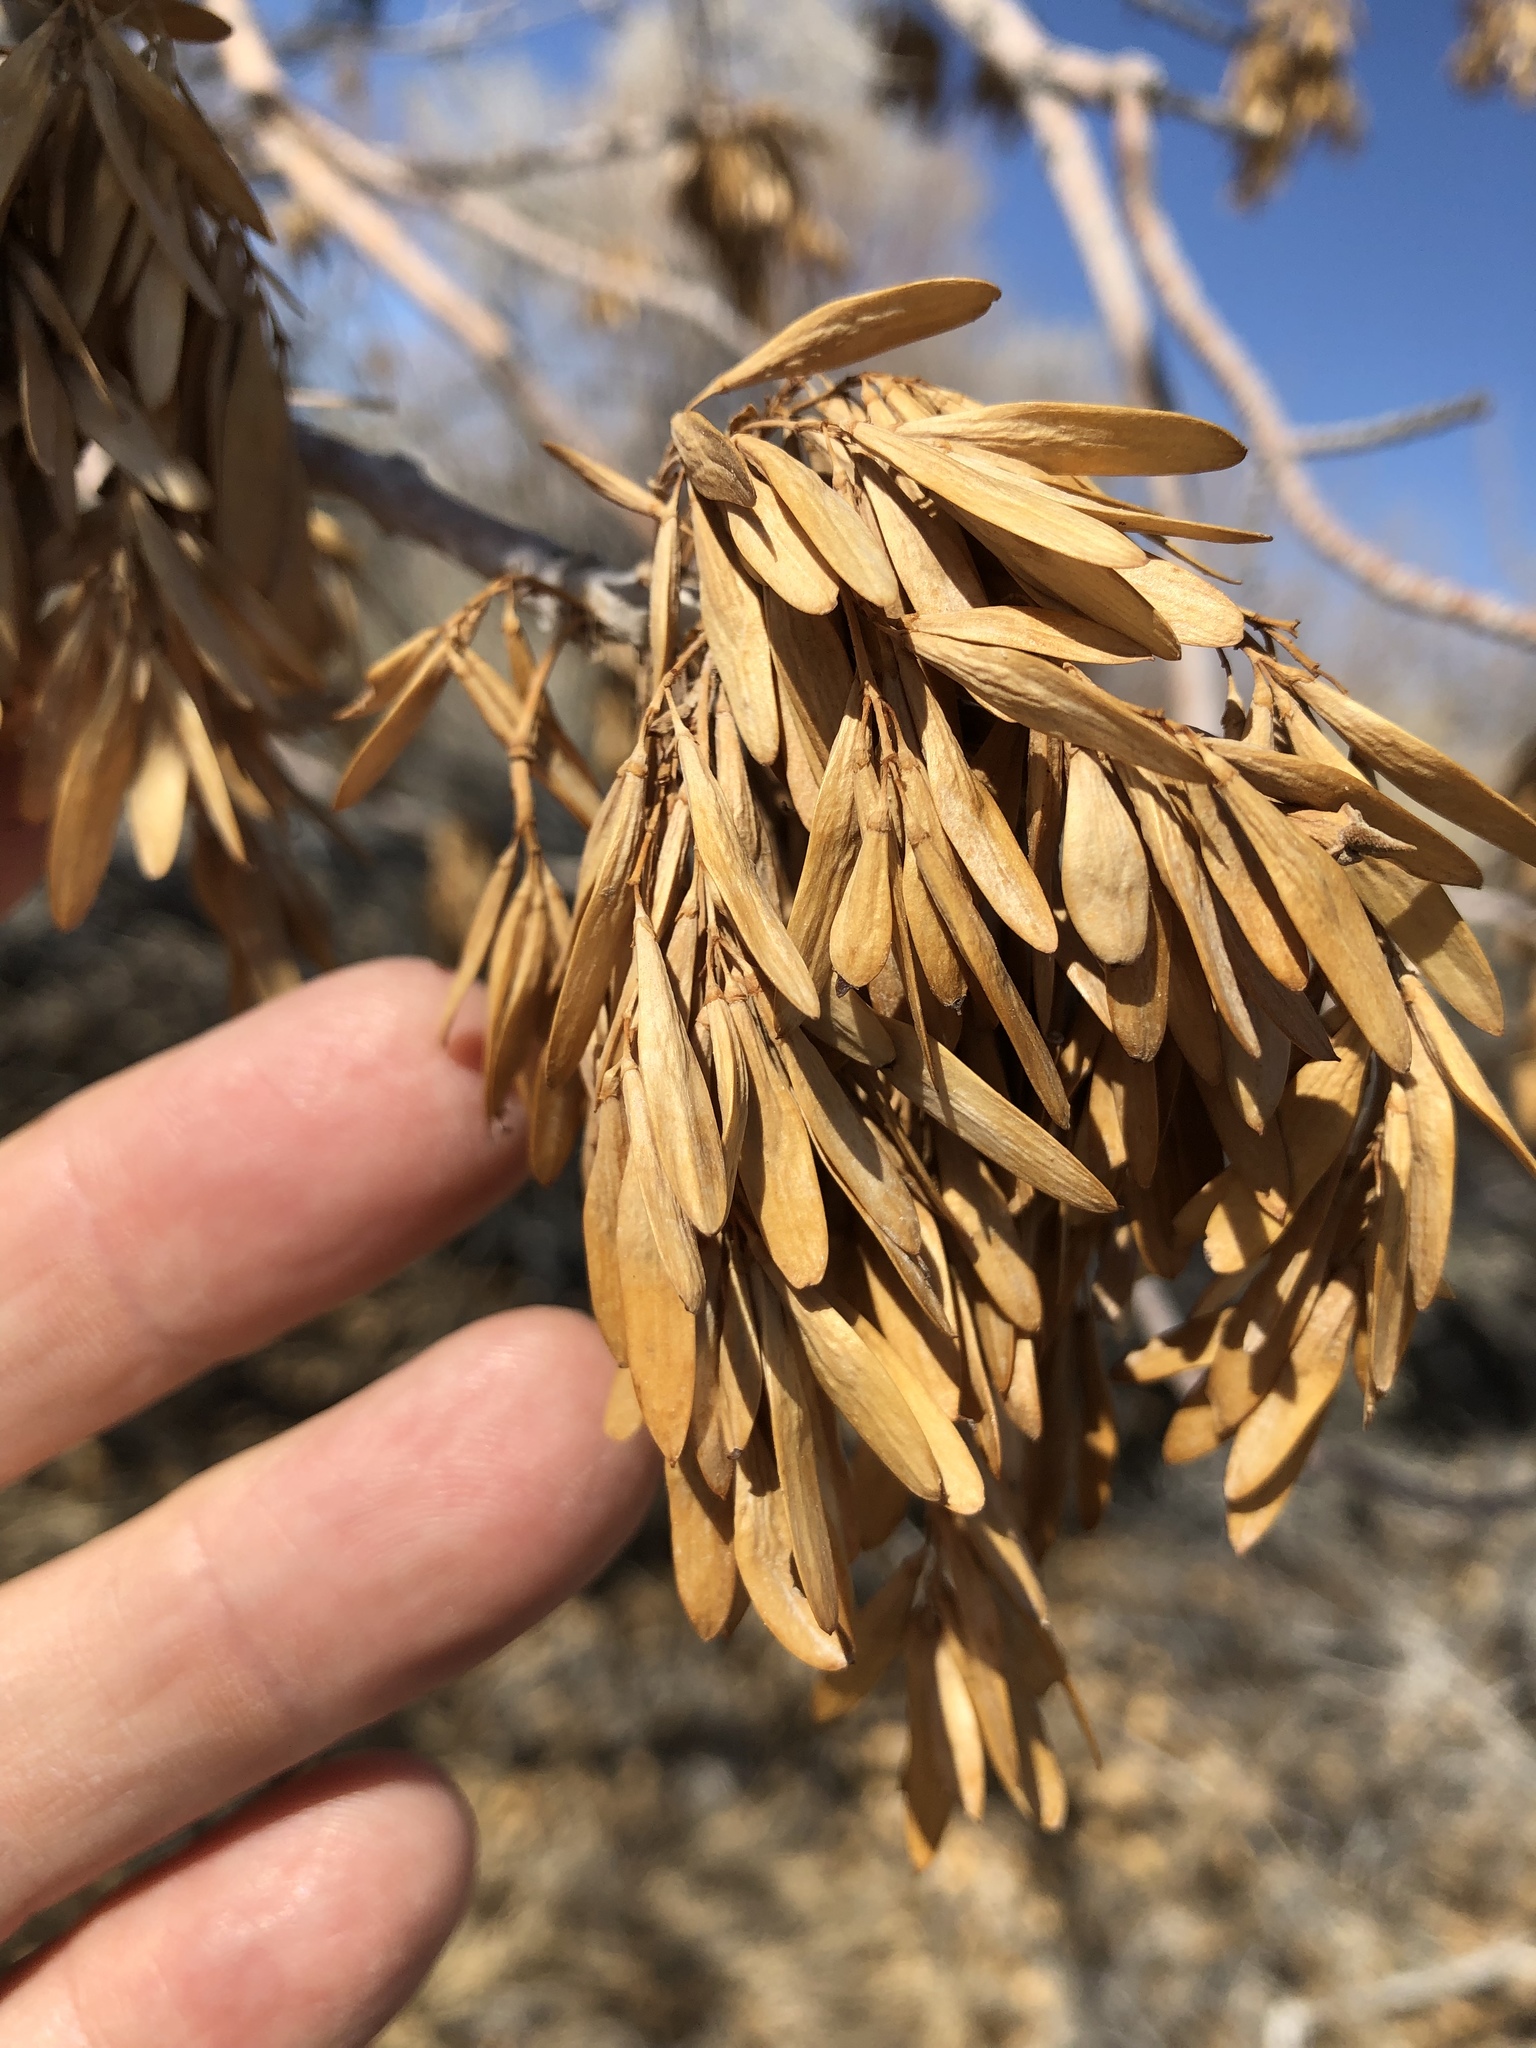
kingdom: Plantae
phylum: Tracheophyta
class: Magnoliopsida
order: Lamiales
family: Oleaceae
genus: Fraxinus
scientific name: Fraxinus velutina
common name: Arizon ash
